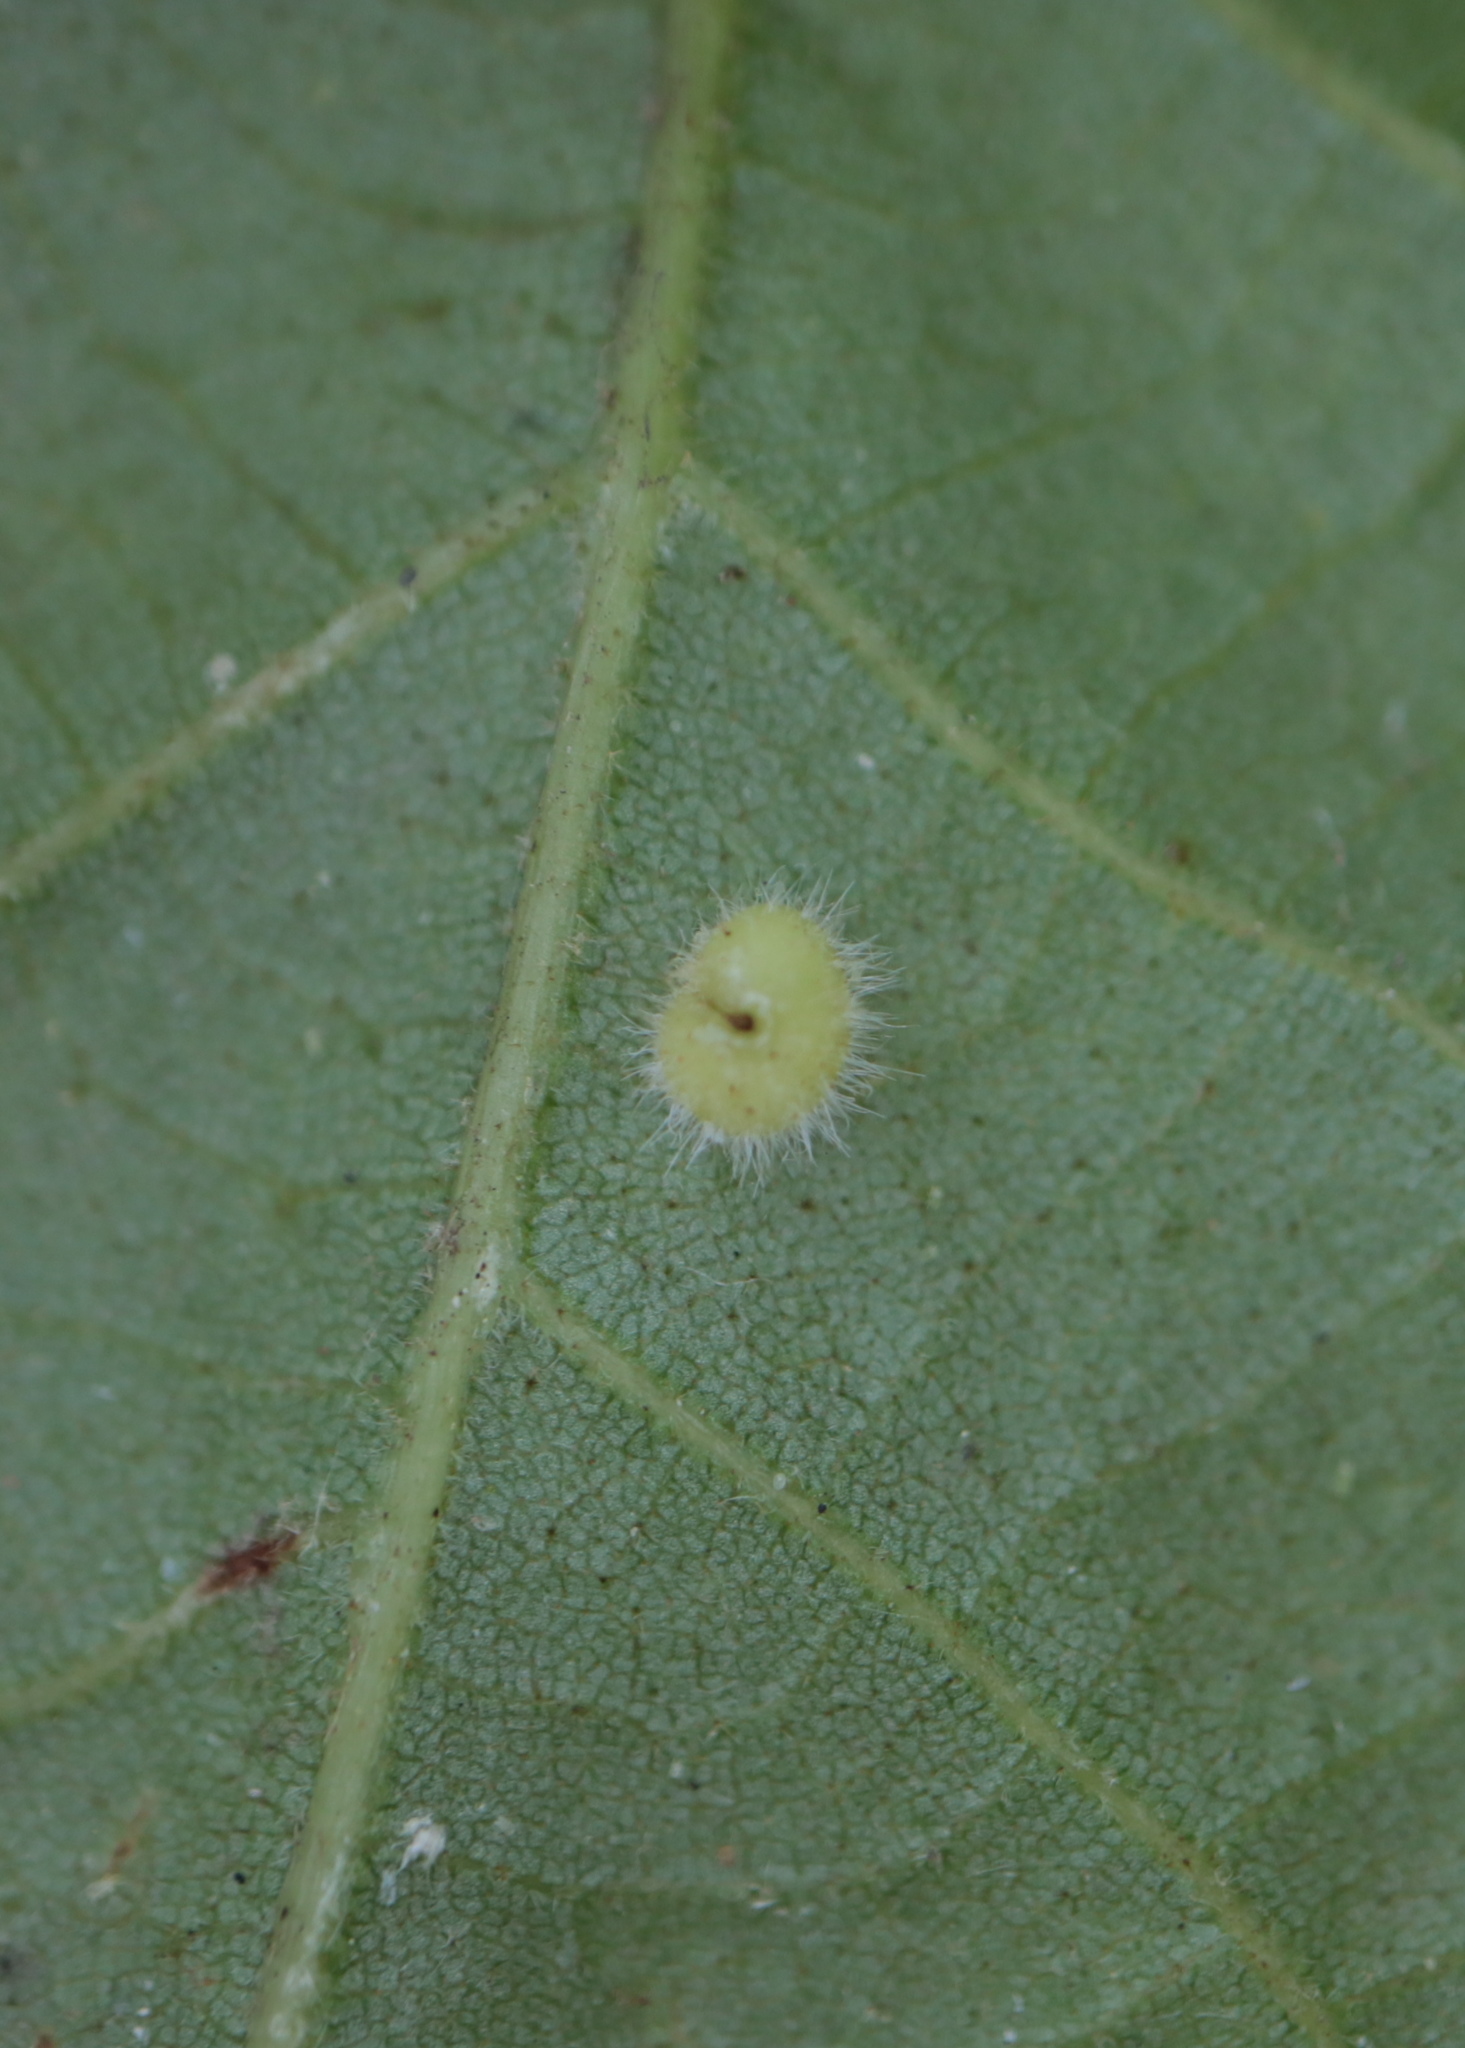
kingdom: Animalia
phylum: Arthropoda
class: Insecta
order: Diptera
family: Cecidomyiidae
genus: Caryomyia
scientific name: Caryomyia thompsoni
